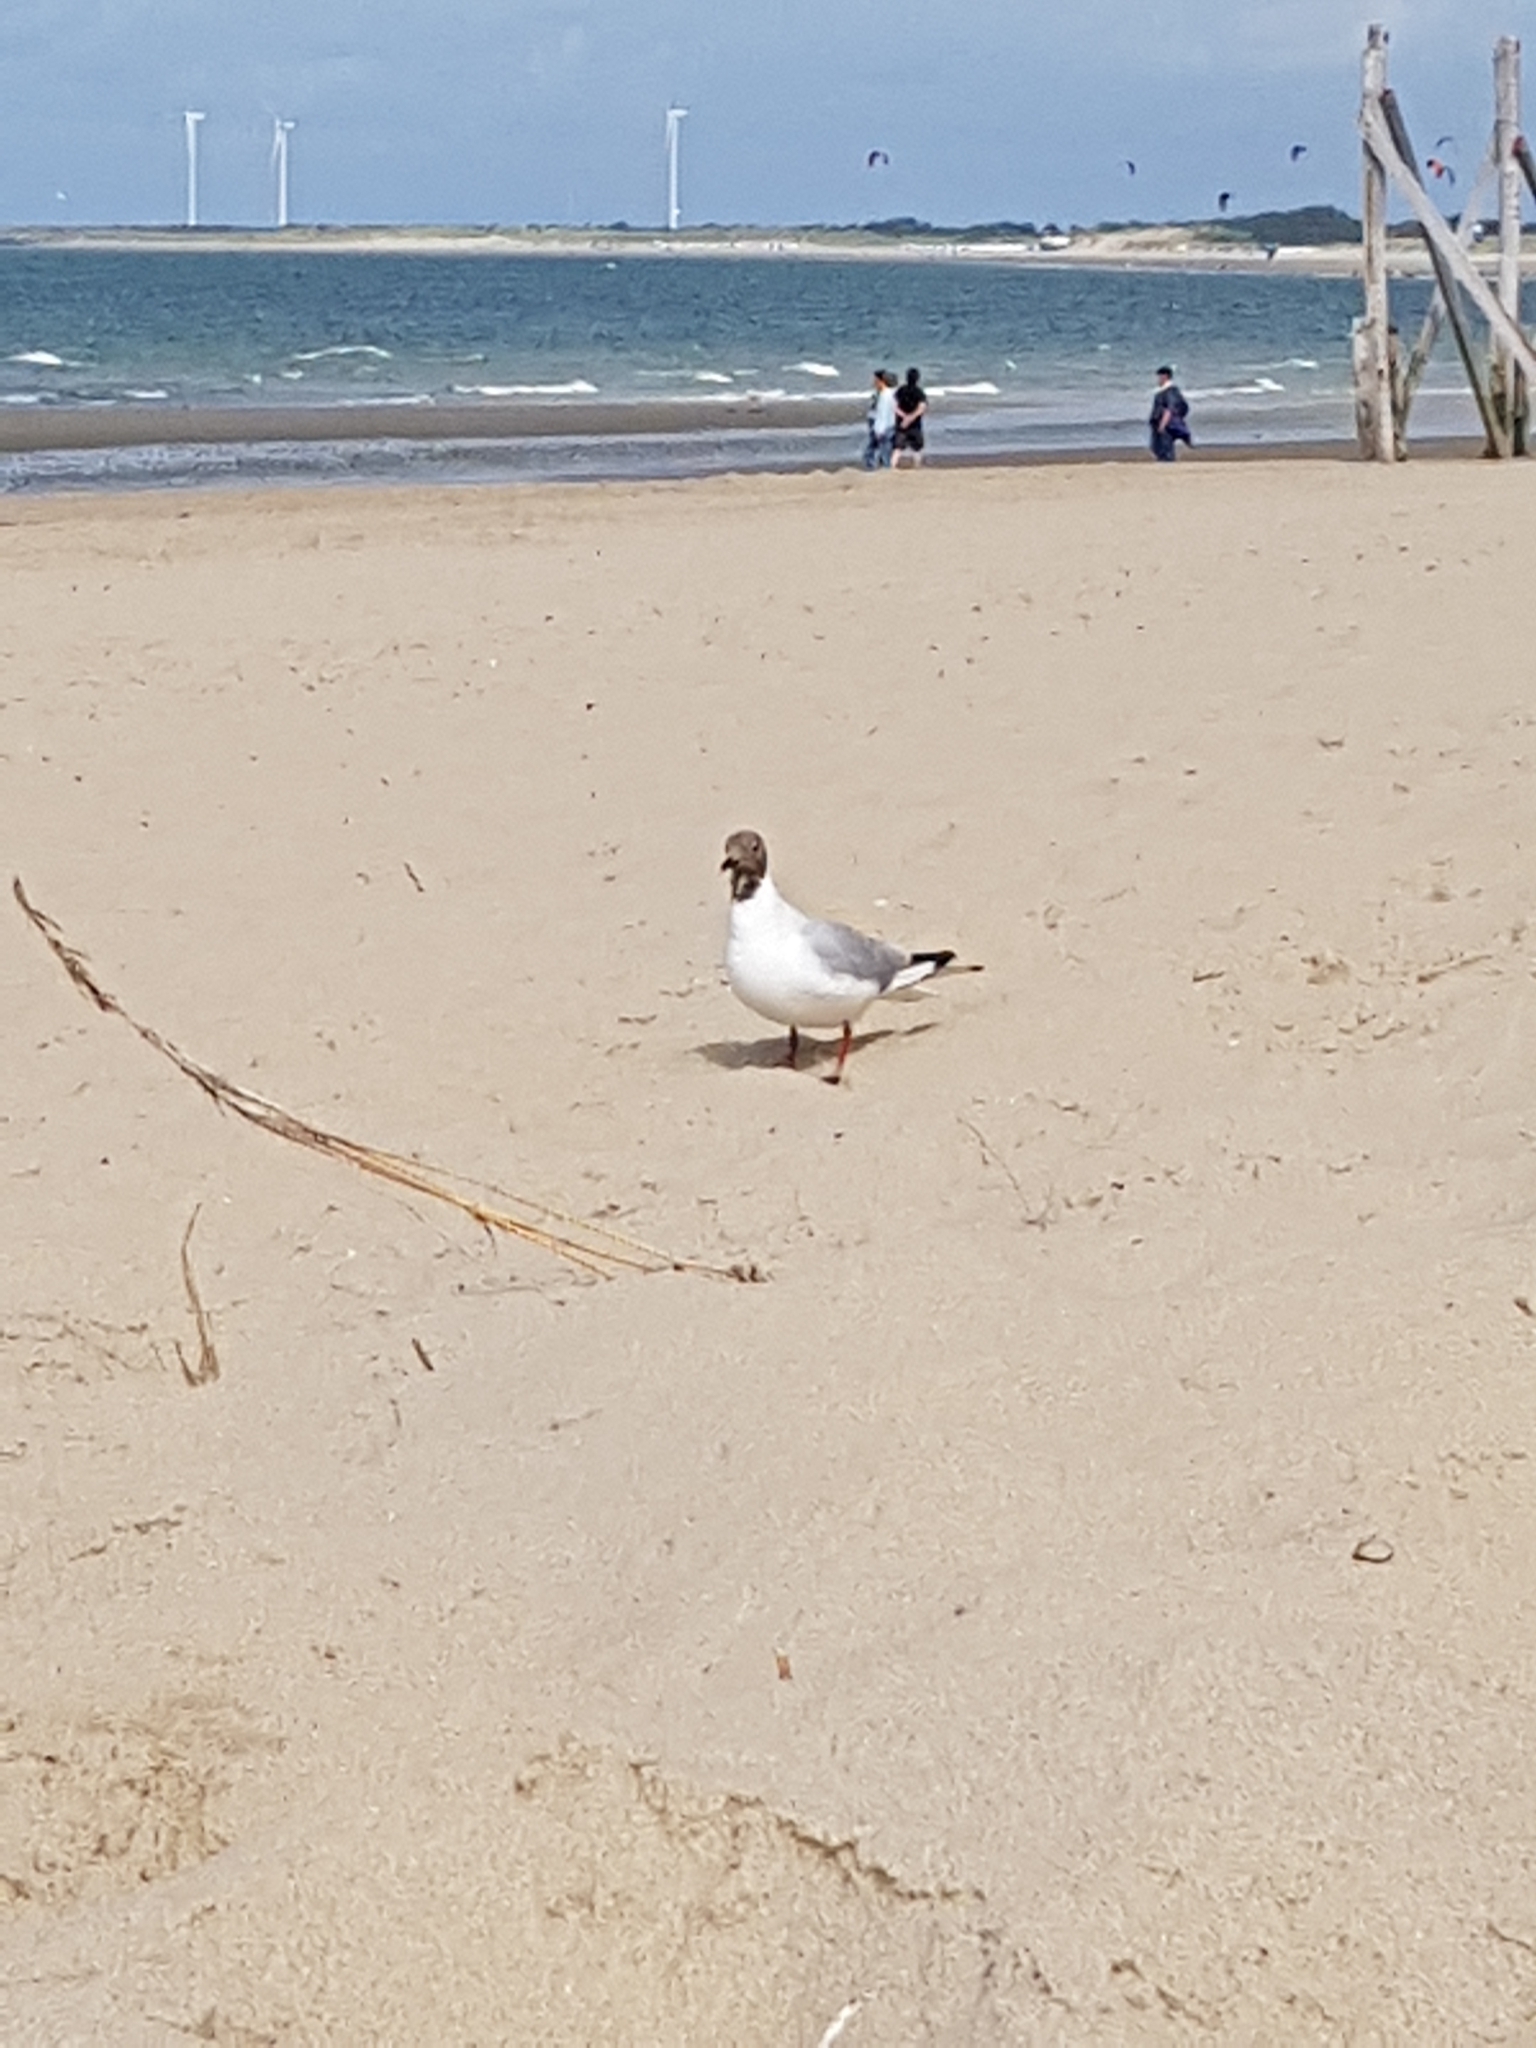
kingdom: Animalia
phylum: Chordata
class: Aves
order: Charadriiformes
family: Laridae
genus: Chroicocephalus
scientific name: Chroicocephalus ridibundus
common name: Black-headed gull
